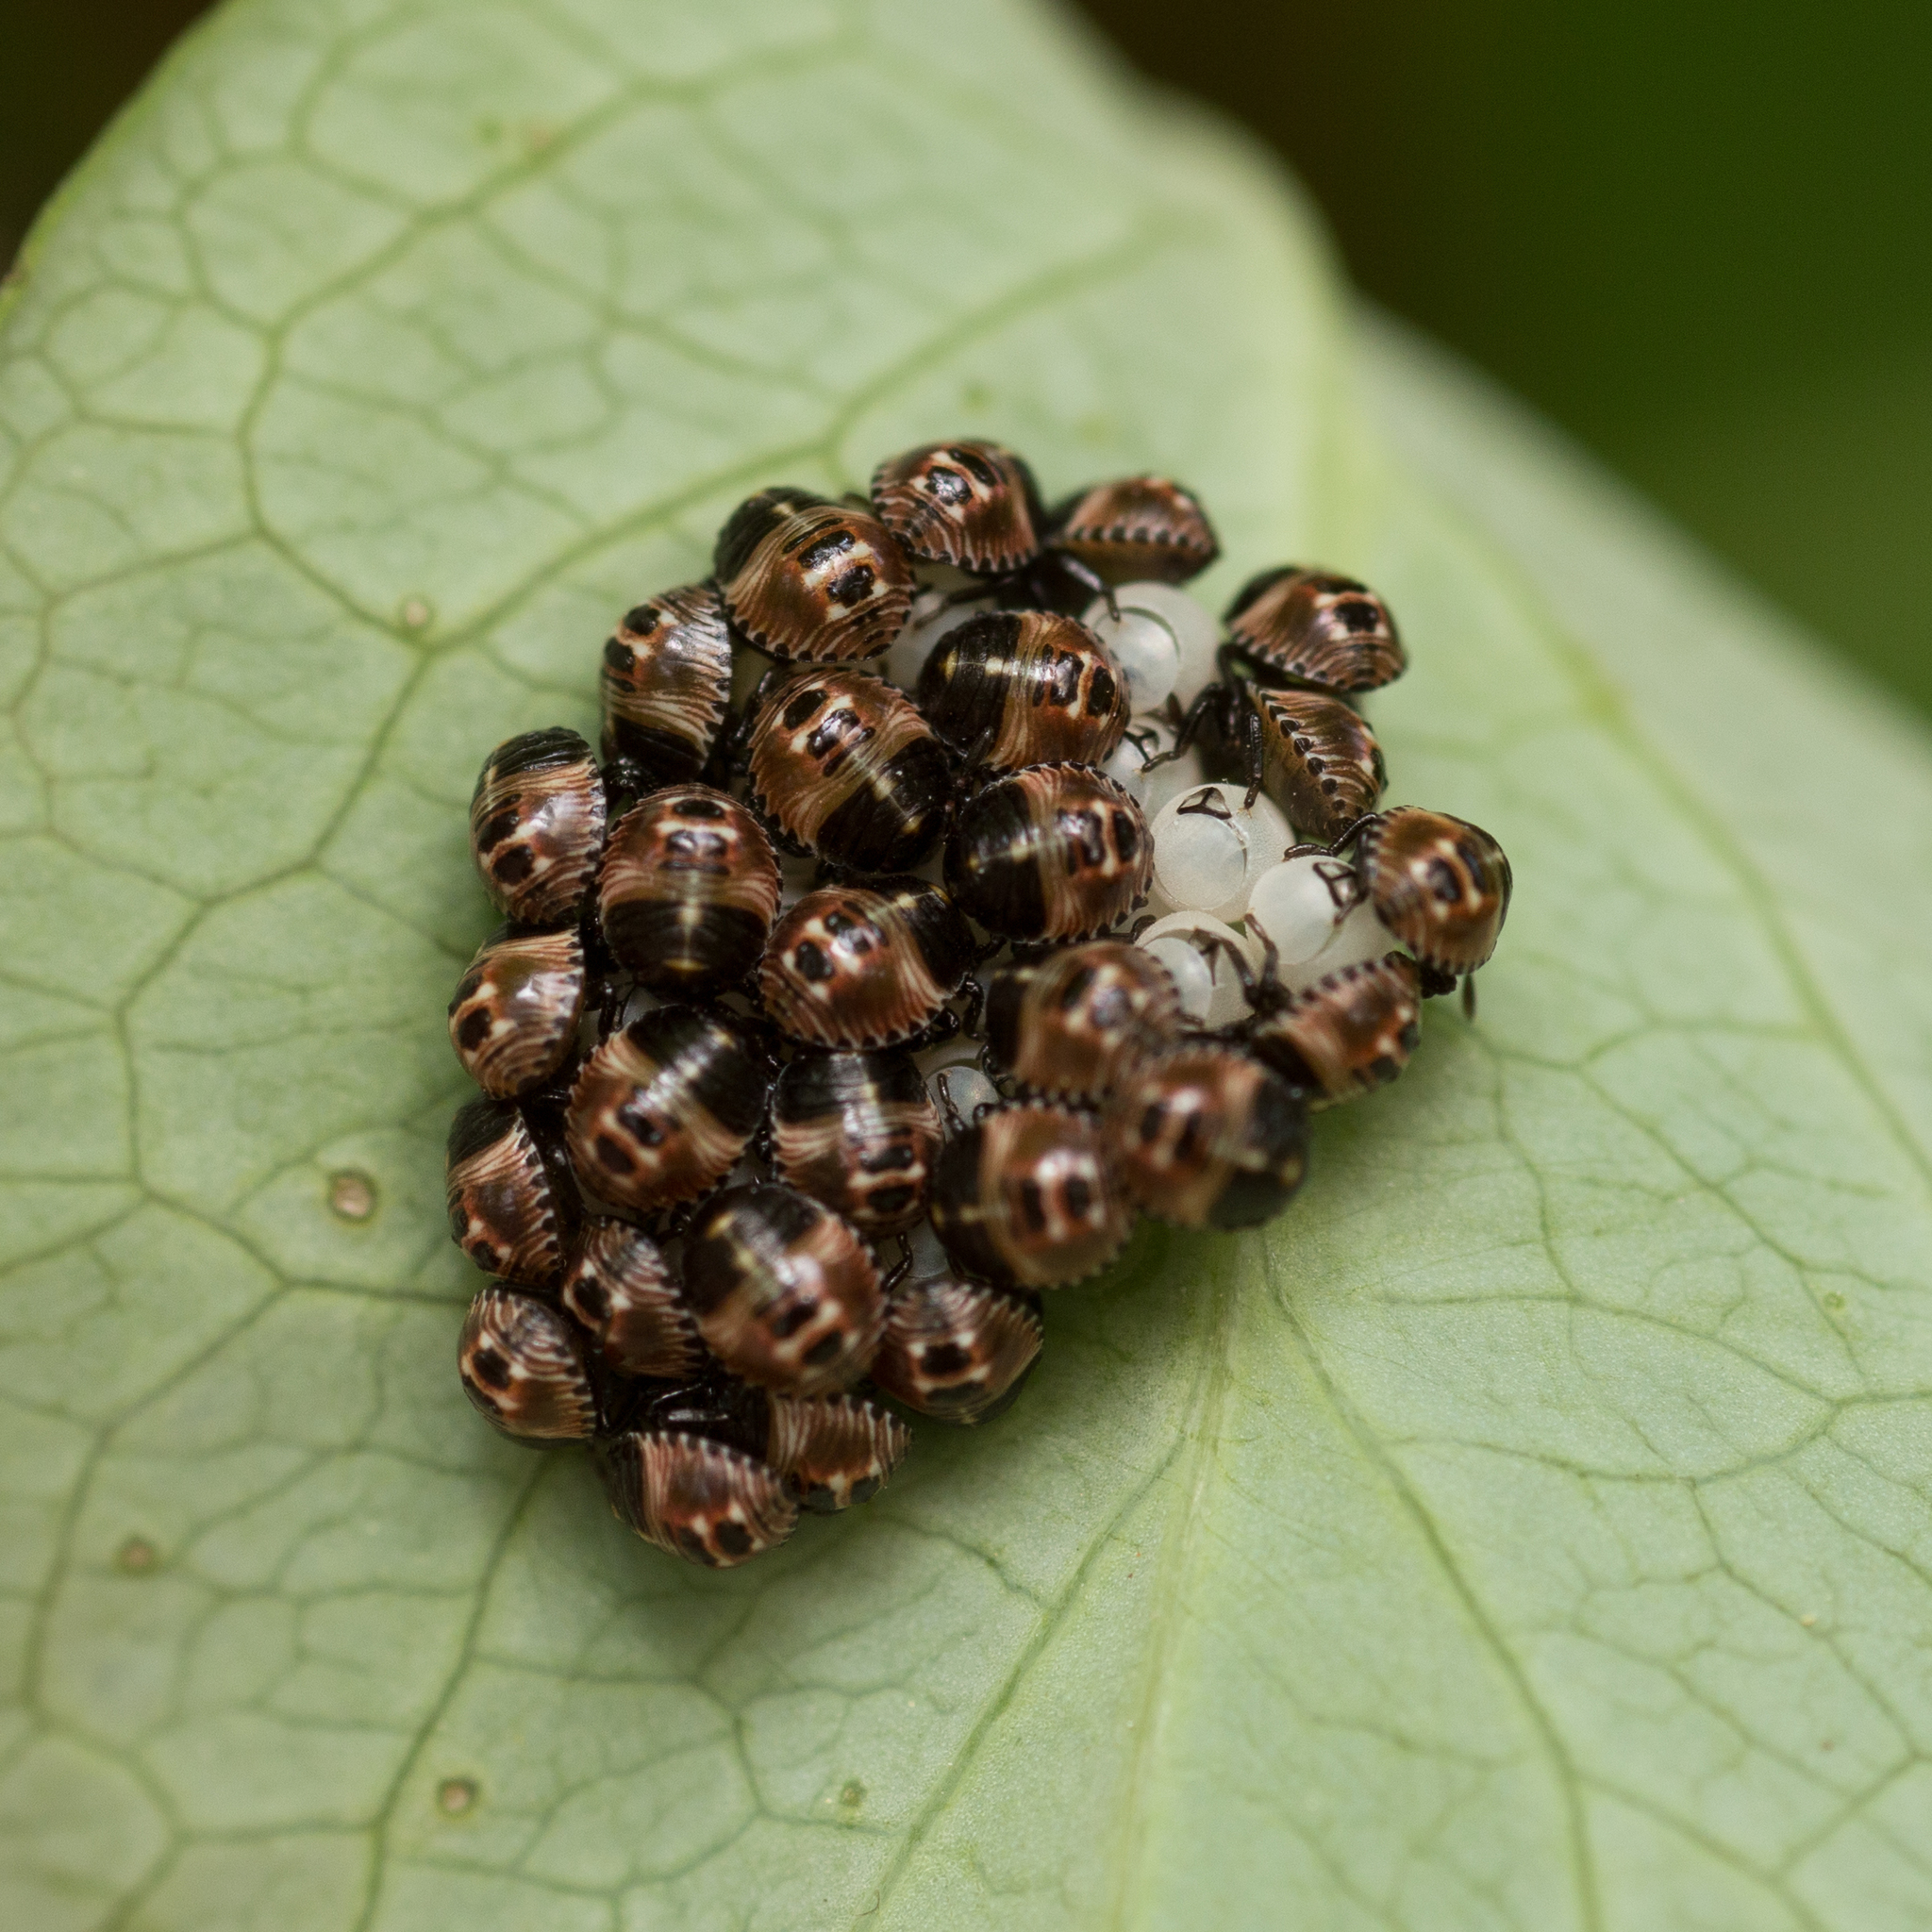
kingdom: Animalia
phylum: Arthropoda
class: Insecta
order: Hemiptera
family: Pentatomidae
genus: Palomena
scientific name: Palomena prasina
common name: Green shieldbug
